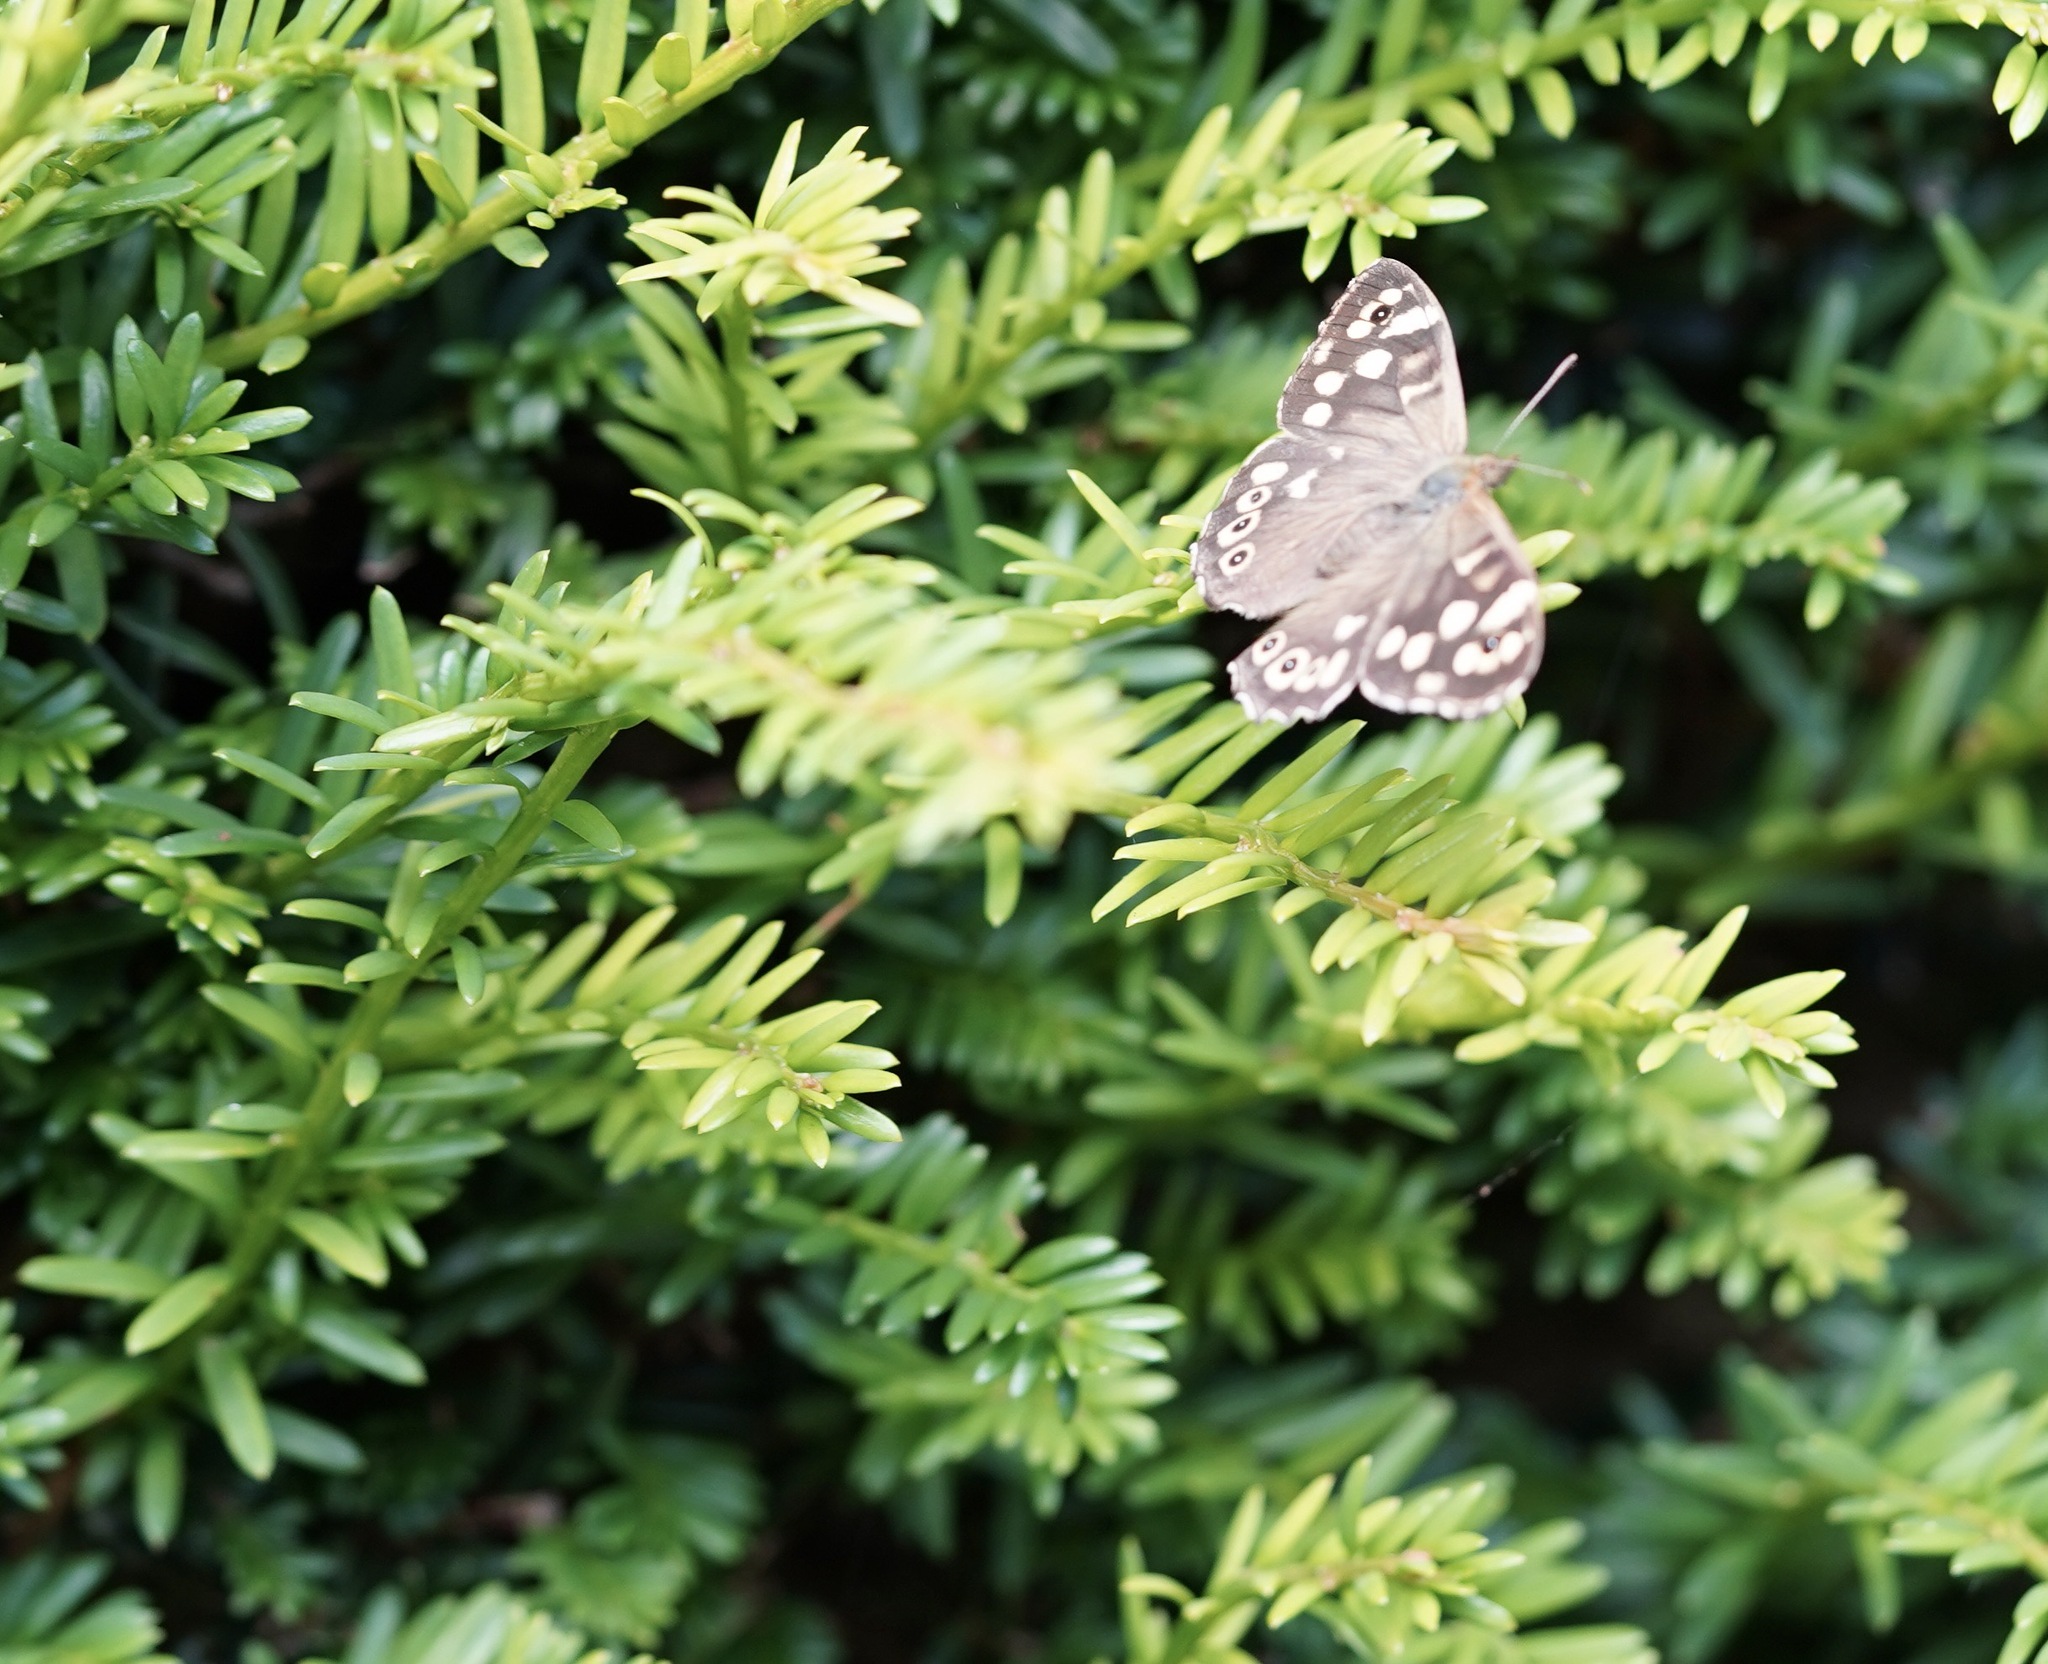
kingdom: Animalia
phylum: Arthropoda
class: Insecta
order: Lepidoptera
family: Nymphalidae
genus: Pararge
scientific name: Pararge aegeria
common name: Speckled wood
